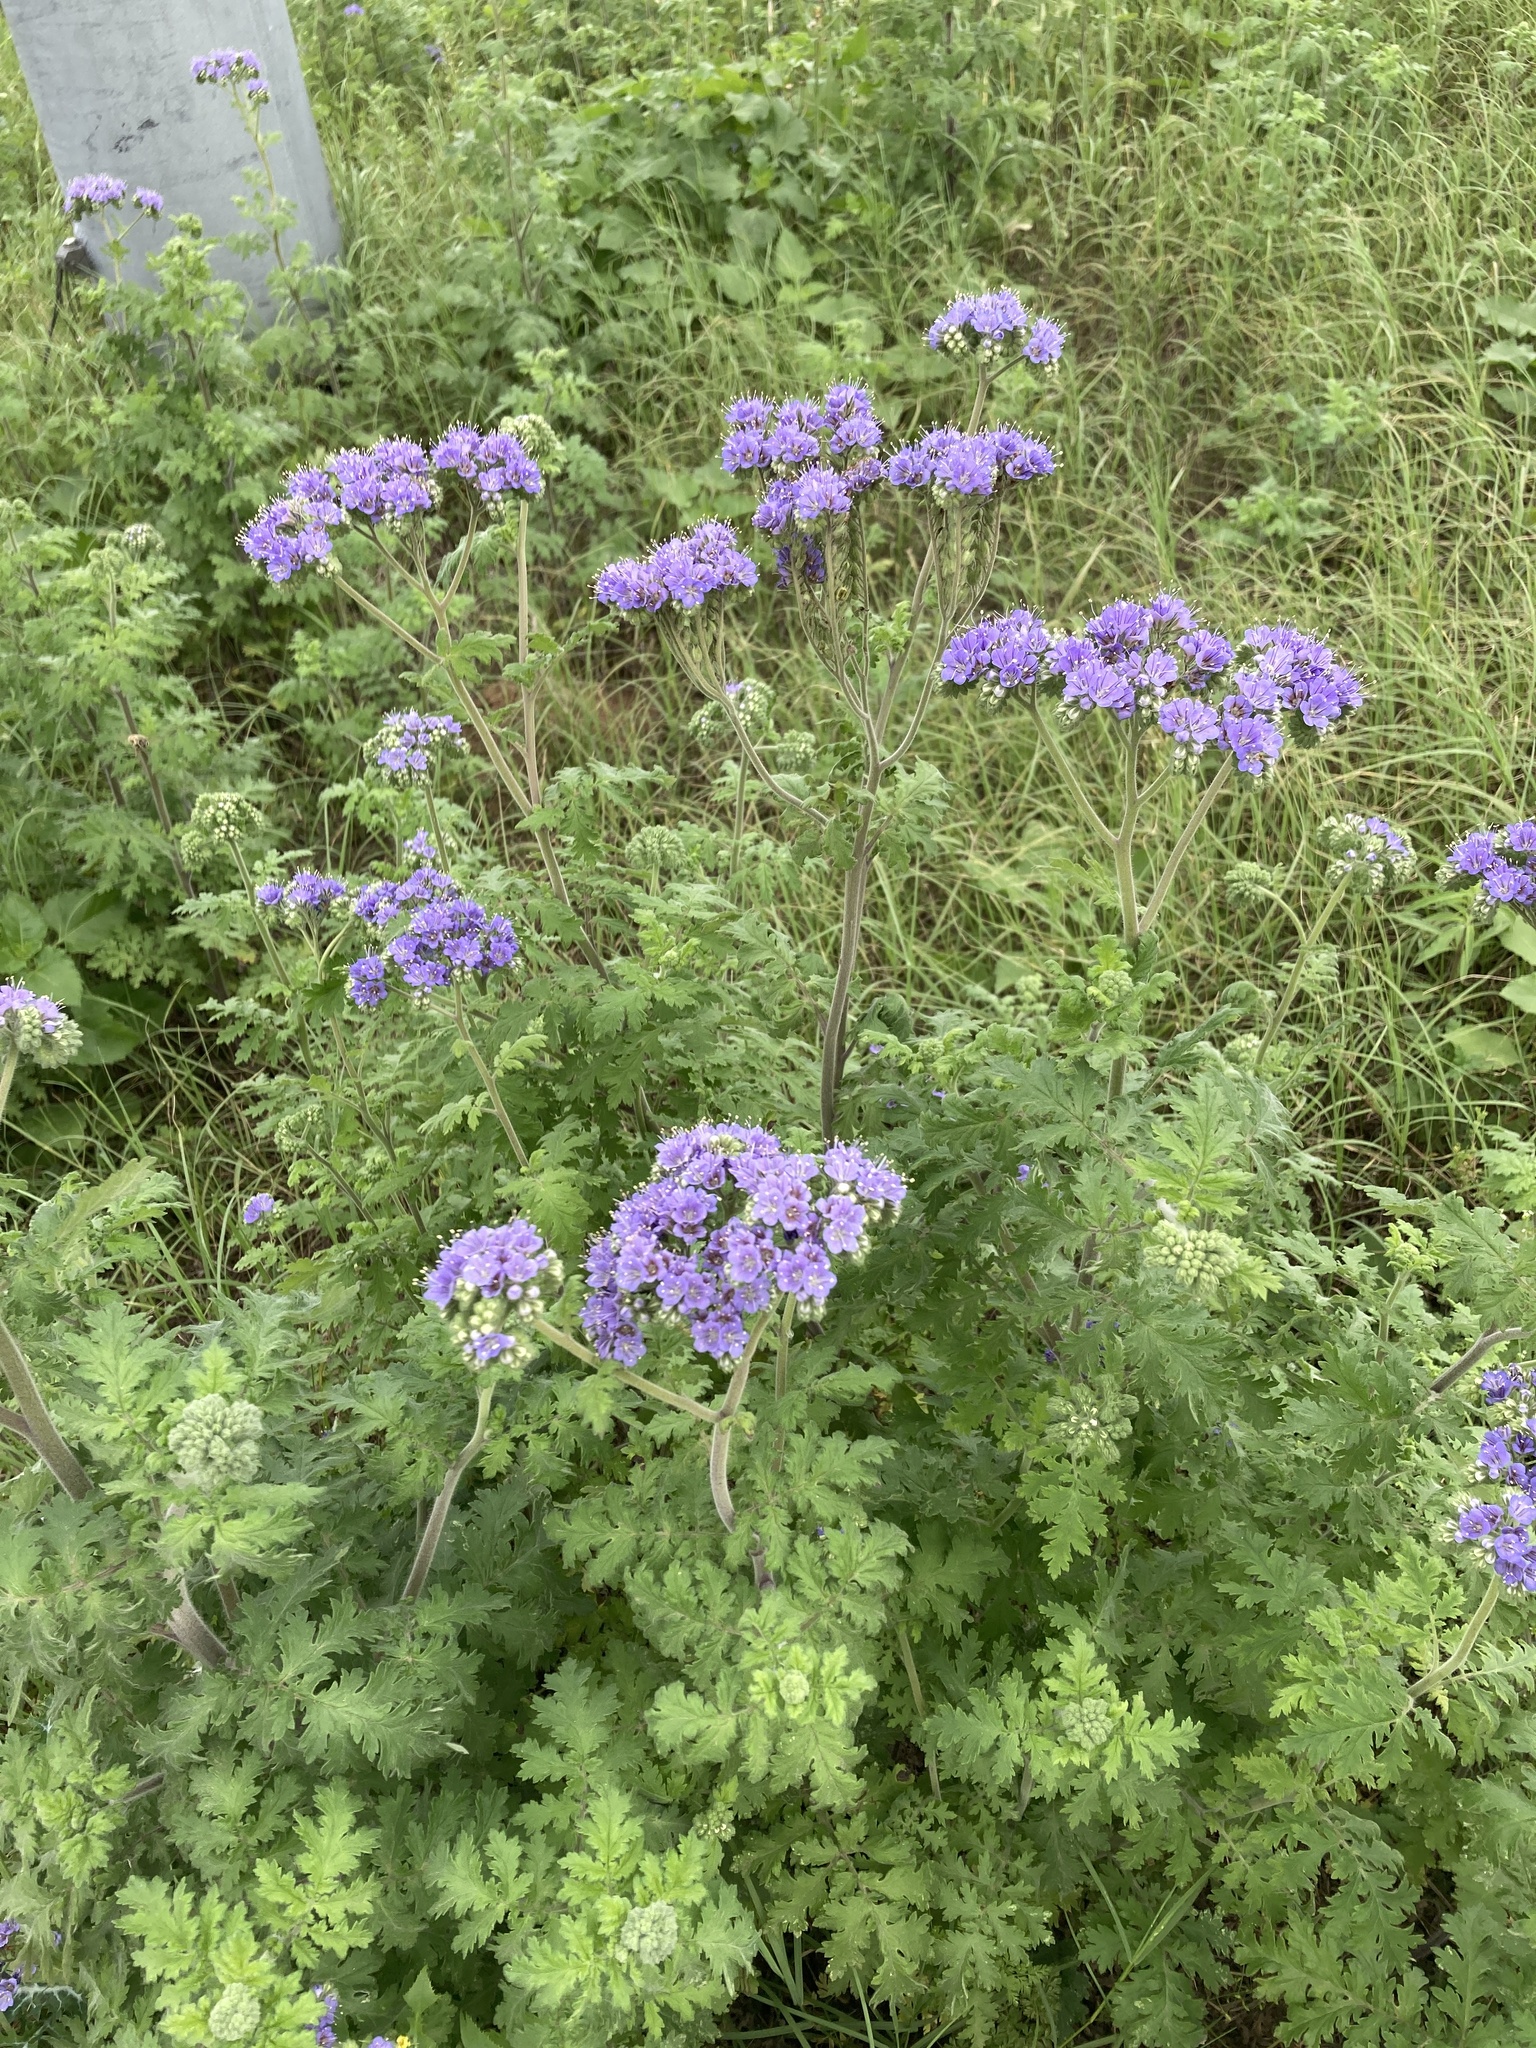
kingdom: Plantae
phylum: Tracheophyta
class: Magnoliopsida
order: Boraginales
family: Hydrophyllaceae
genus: Phacelia
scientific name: Phacelia congesta
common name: Blue curls
